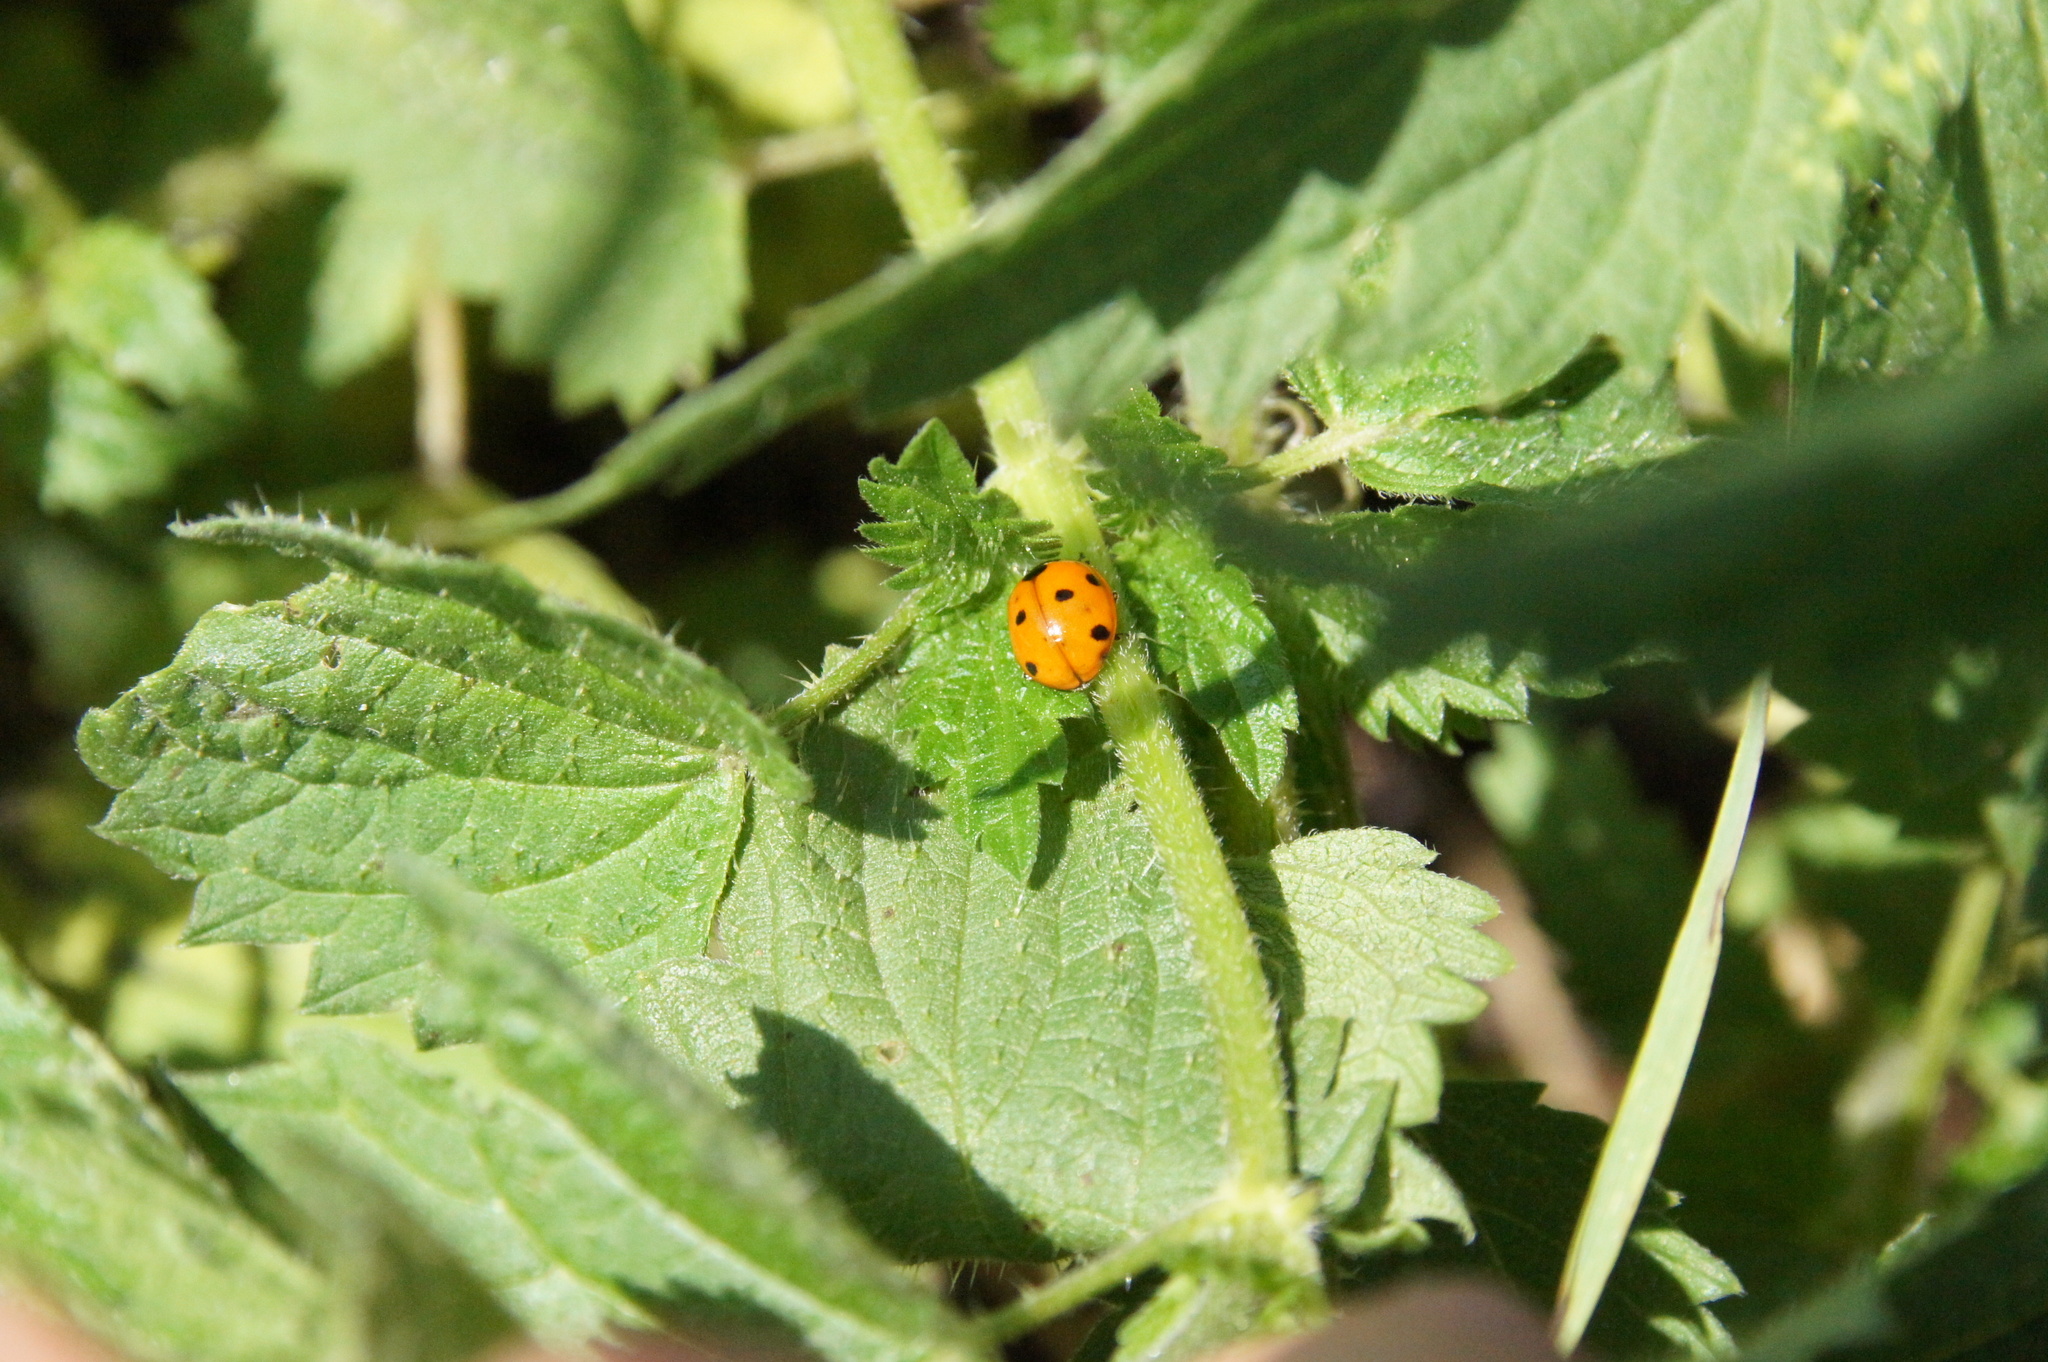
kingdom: Animalia
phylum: Arthropoda
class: Insecta
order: Coleoptera
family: Coccinellidae
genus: Coccinella
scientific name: Coccinella septempunctata
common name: Sevenspotted lady beetle
